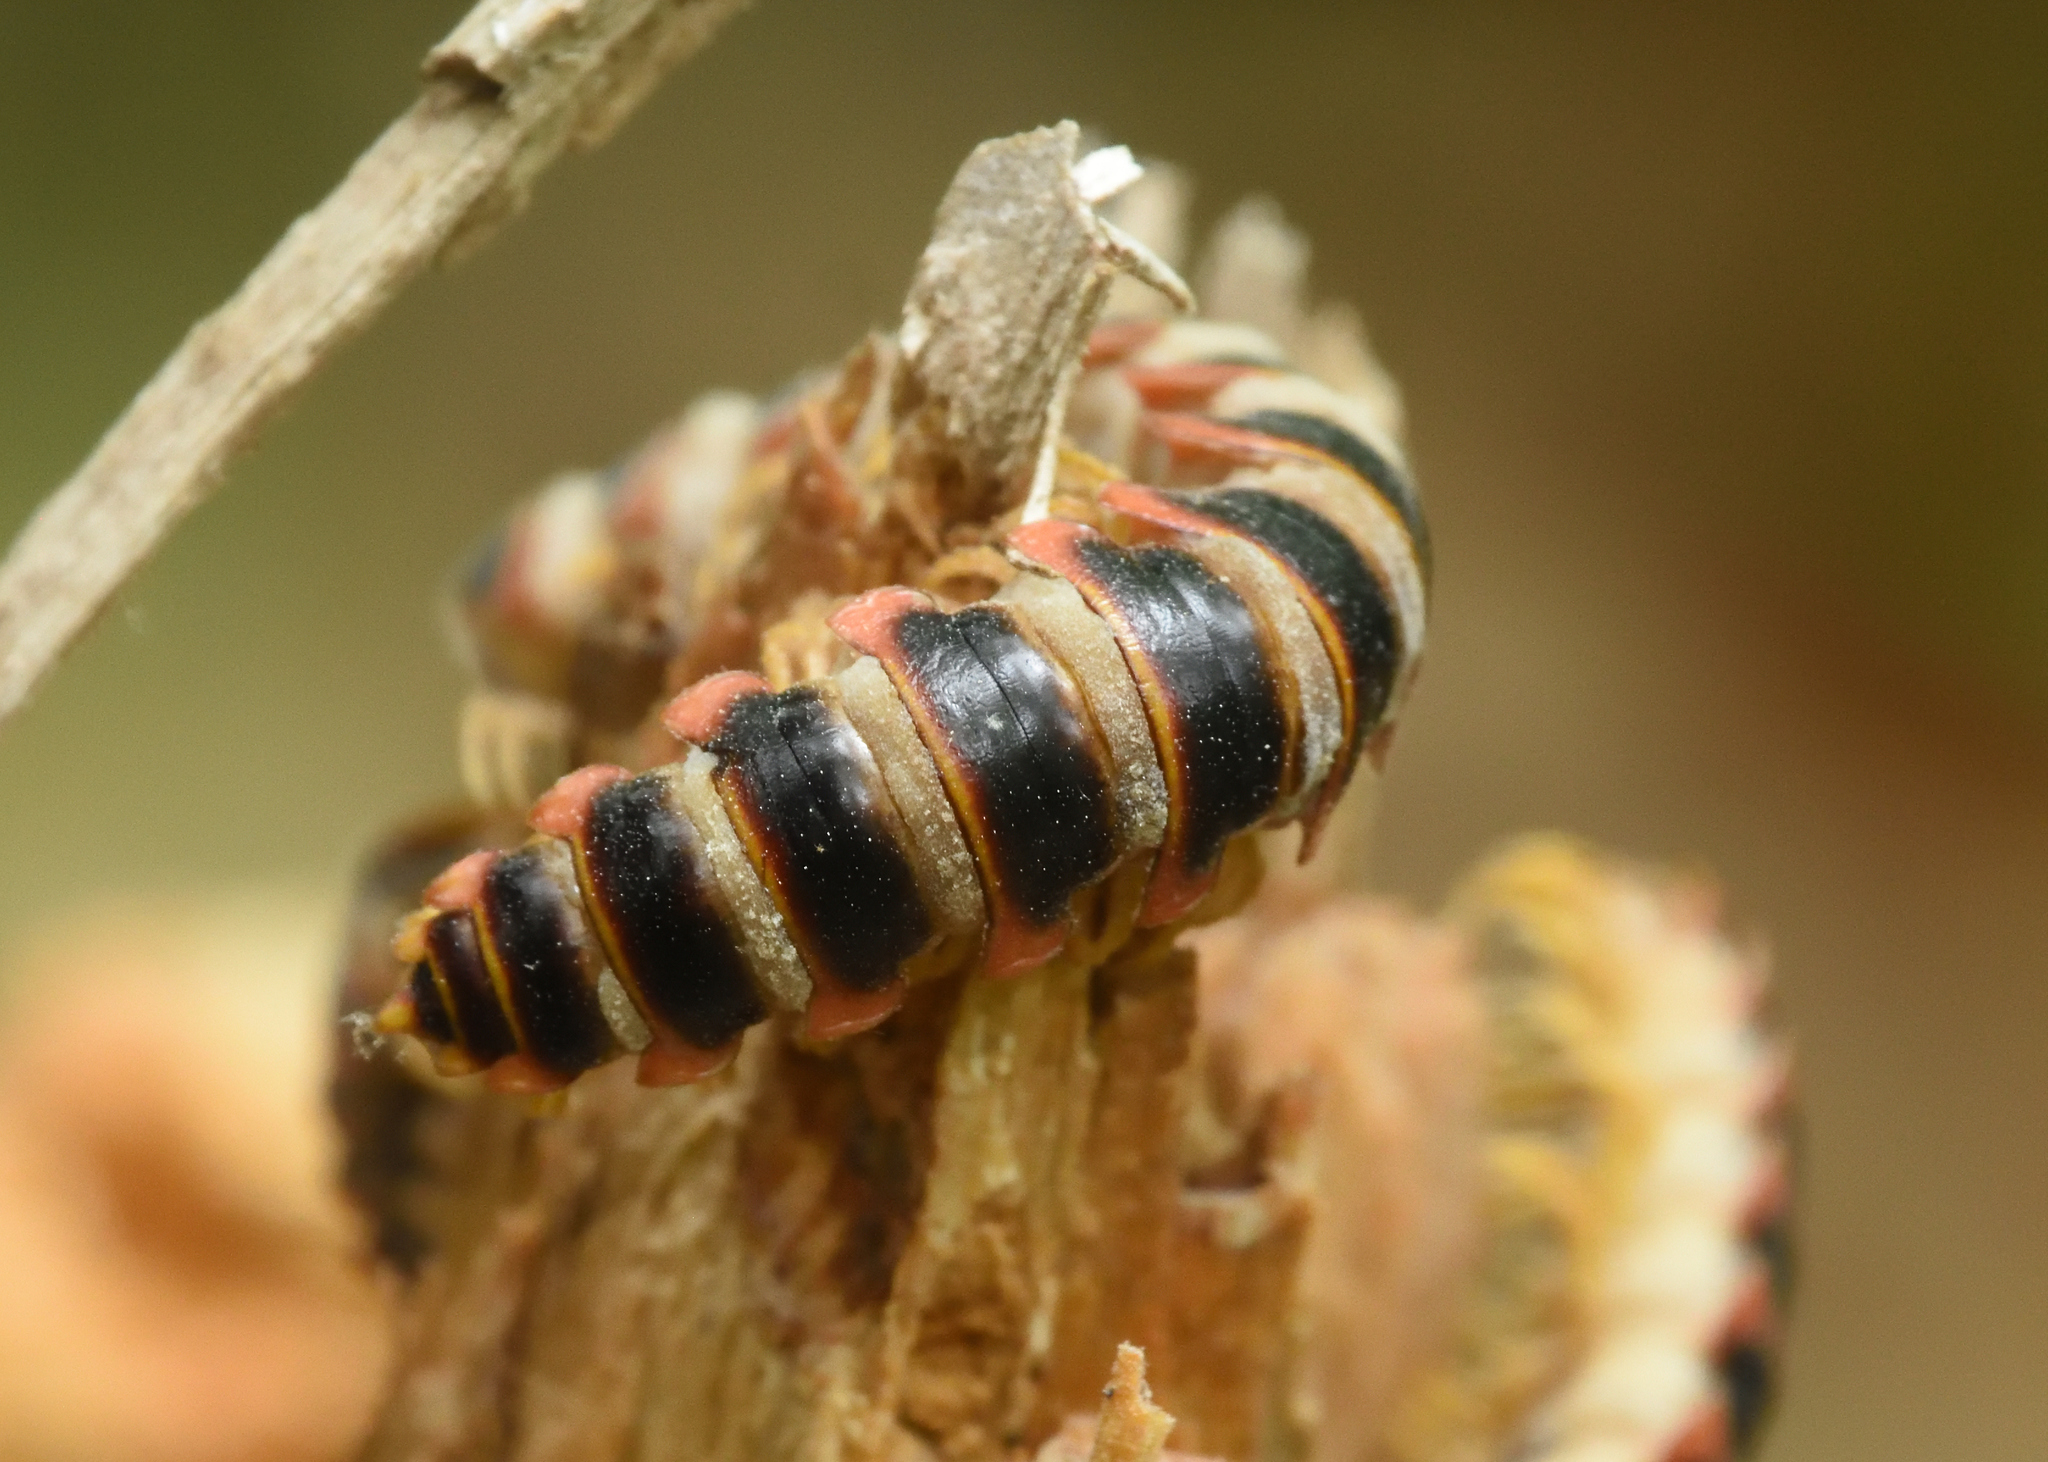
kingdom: Animalia
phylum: Arthropoda
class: Diplopoda
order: Polydesmida
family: Xystodesmidae
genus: Apheloria
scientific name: Apheloria virginiensis
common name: Black-and-gold flat millipede
